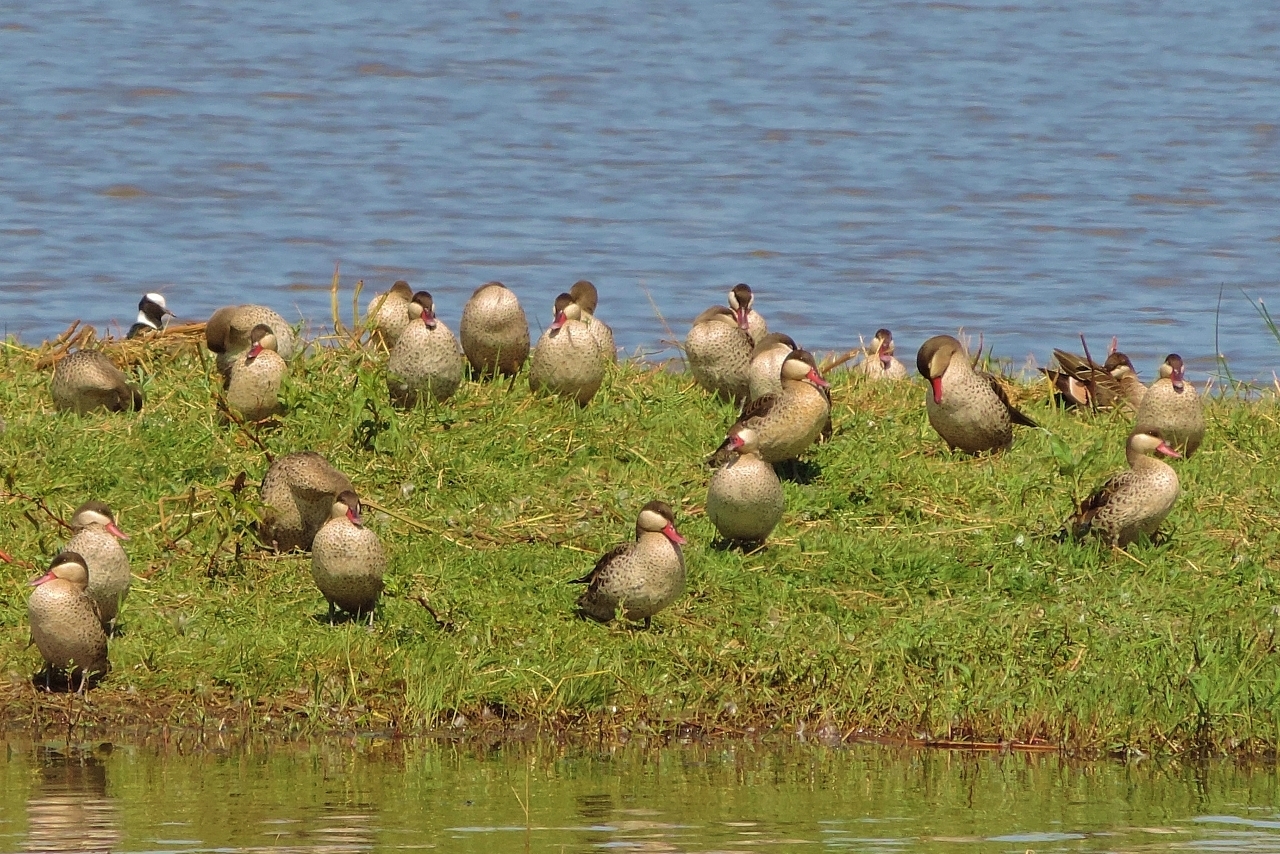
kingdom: Animalia
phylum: Chordata
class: Aves
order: Anseriformes
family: Anatidae
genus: Anas
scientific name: Anas erythrorhyncha
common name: Red-billed teal
